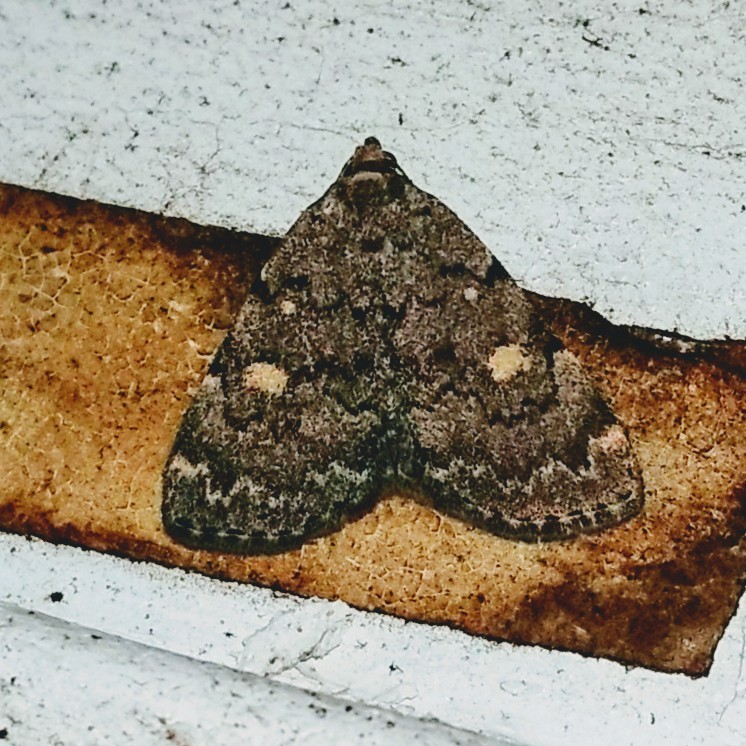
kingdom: Animalia
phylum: Arthropoda
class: Insecta
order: Lepidoptera
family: Erebidae
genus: Idia
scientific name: Idia aemula
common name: Common idia moth
